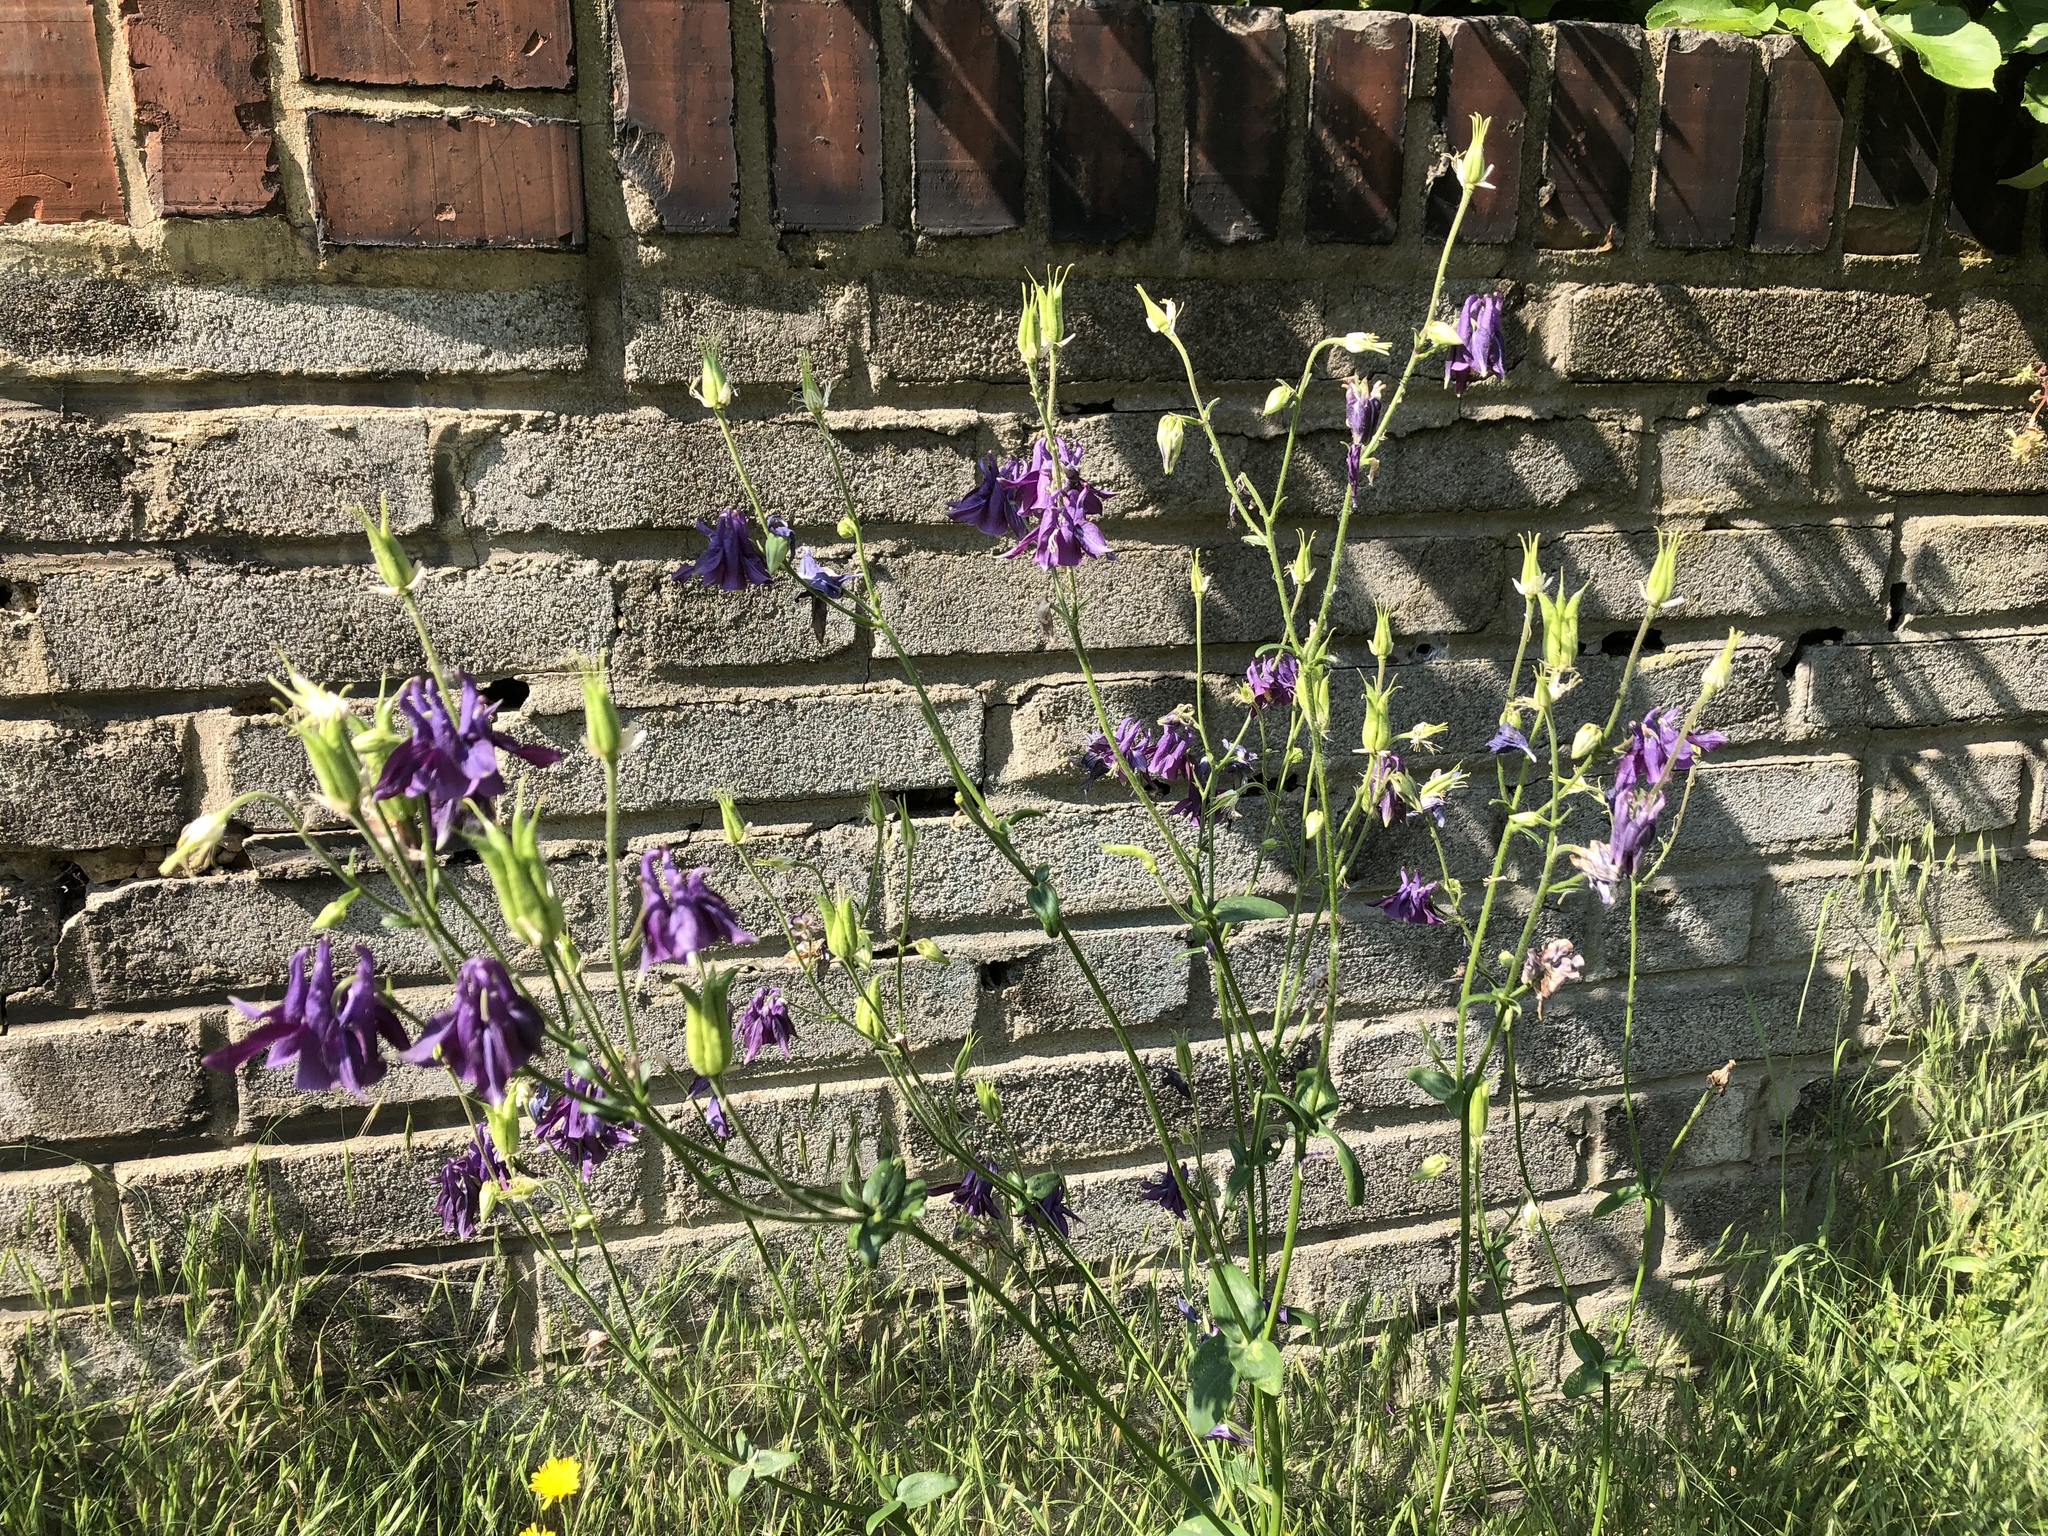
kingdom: Plantae
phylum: Tracheophyta
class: Magnoliopsida
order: Ranunculales
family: Ranunculaceae
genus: Aquilegia
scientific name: Aquilegia vulgaris
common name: Columbine
